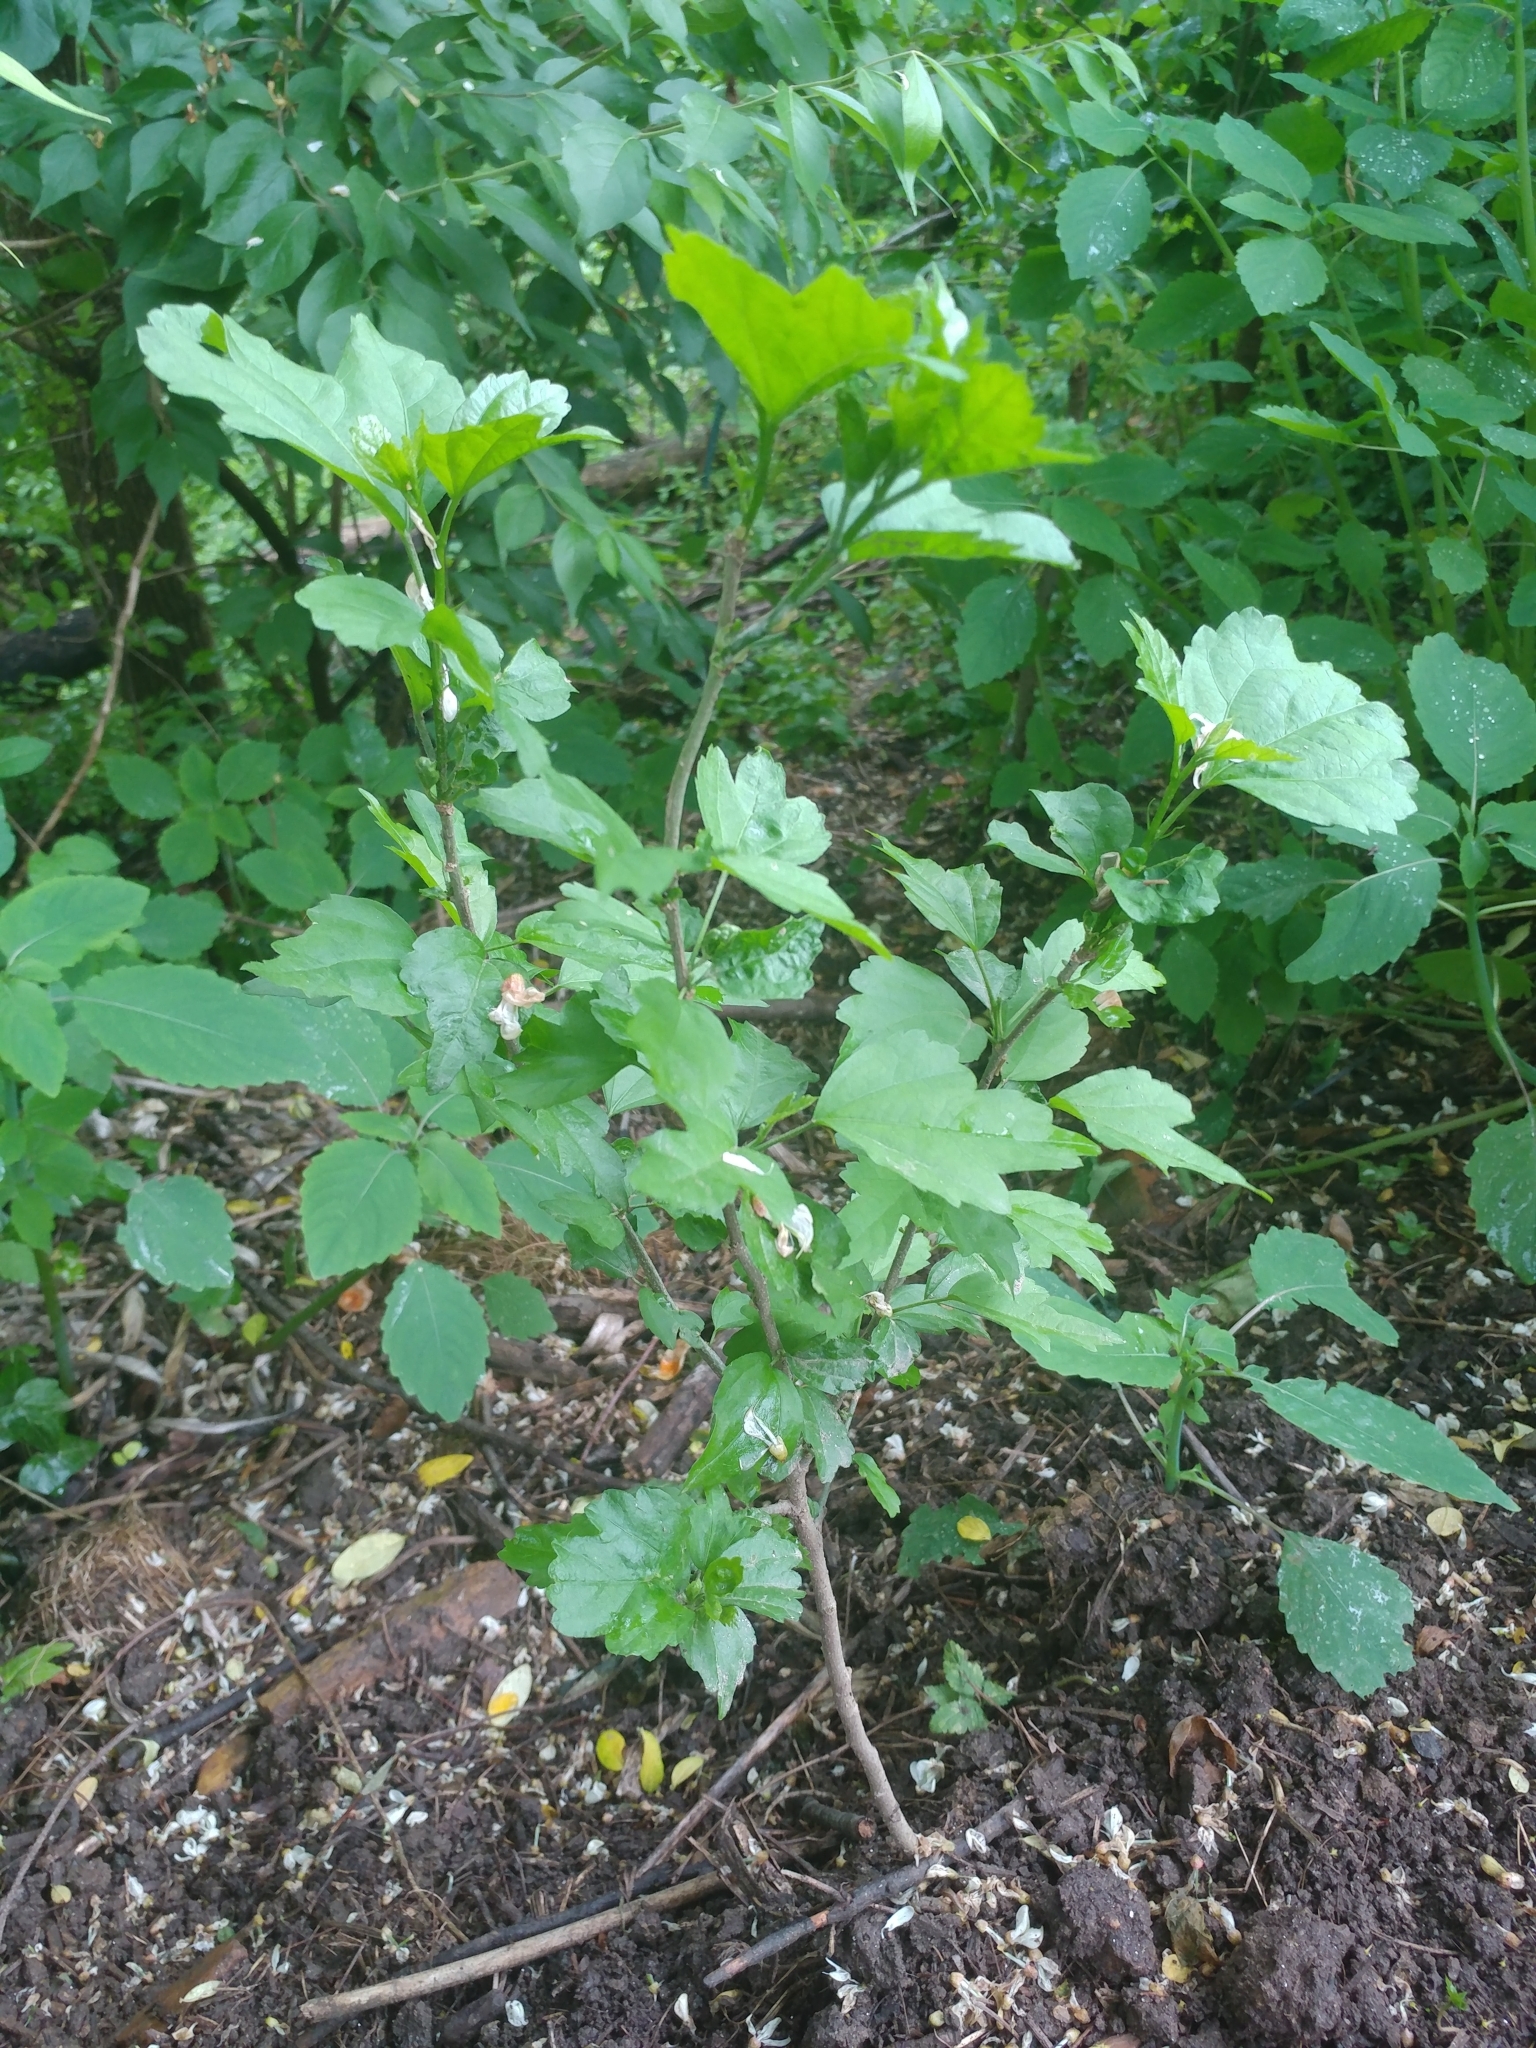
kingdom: Plantae
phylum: Tracheophyta
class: Magnoliopsida
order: Malvales
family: Malvaceae
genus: Hibiscus
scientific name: Hibiscus syriacus
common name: Syrian ketmia
